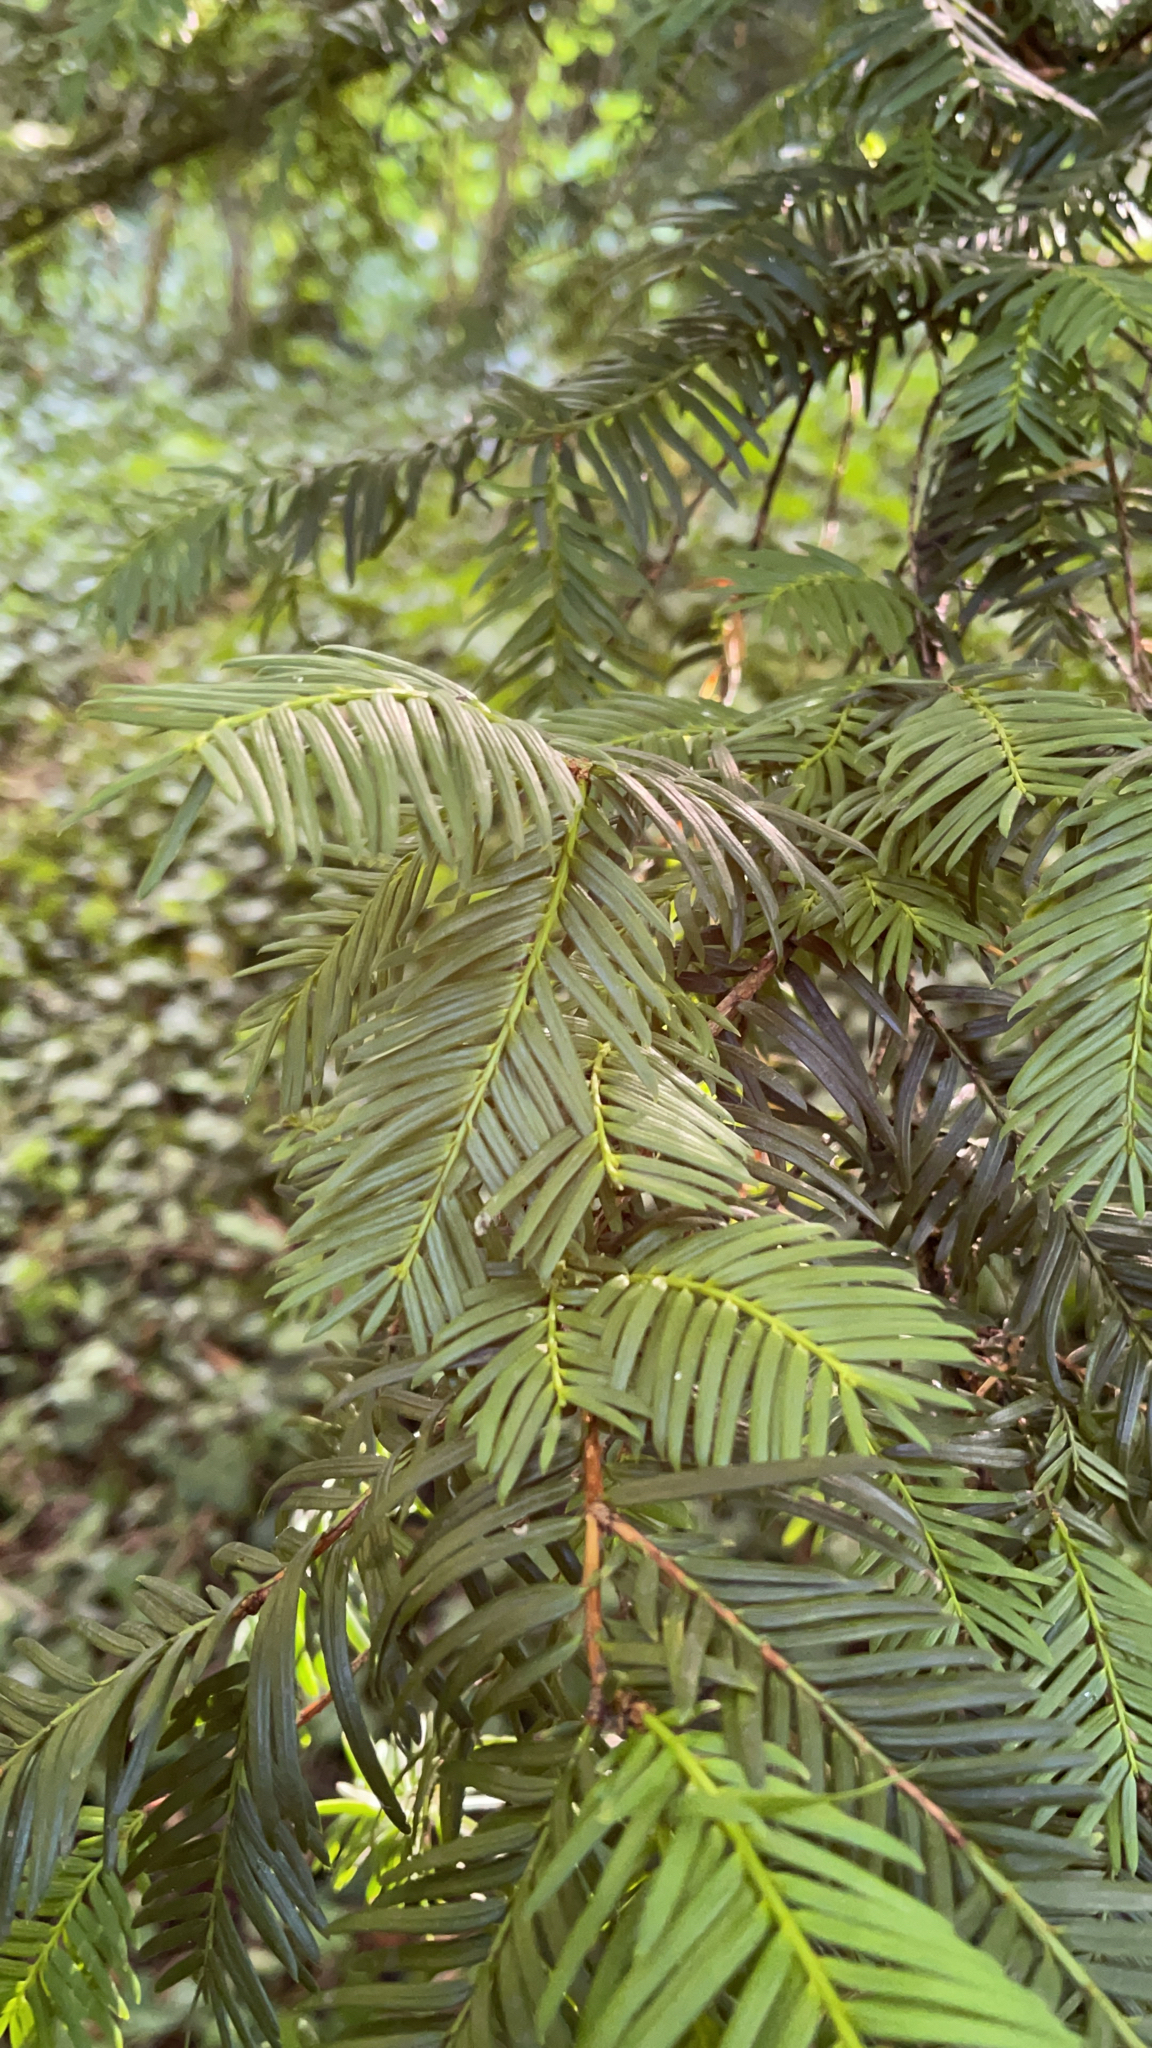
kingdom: Plantae
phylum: Tracheophyta
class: Pinopsida
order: Pinales
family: Taxaceae
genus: Taxus
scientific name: Taxus baccata
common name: Yew
